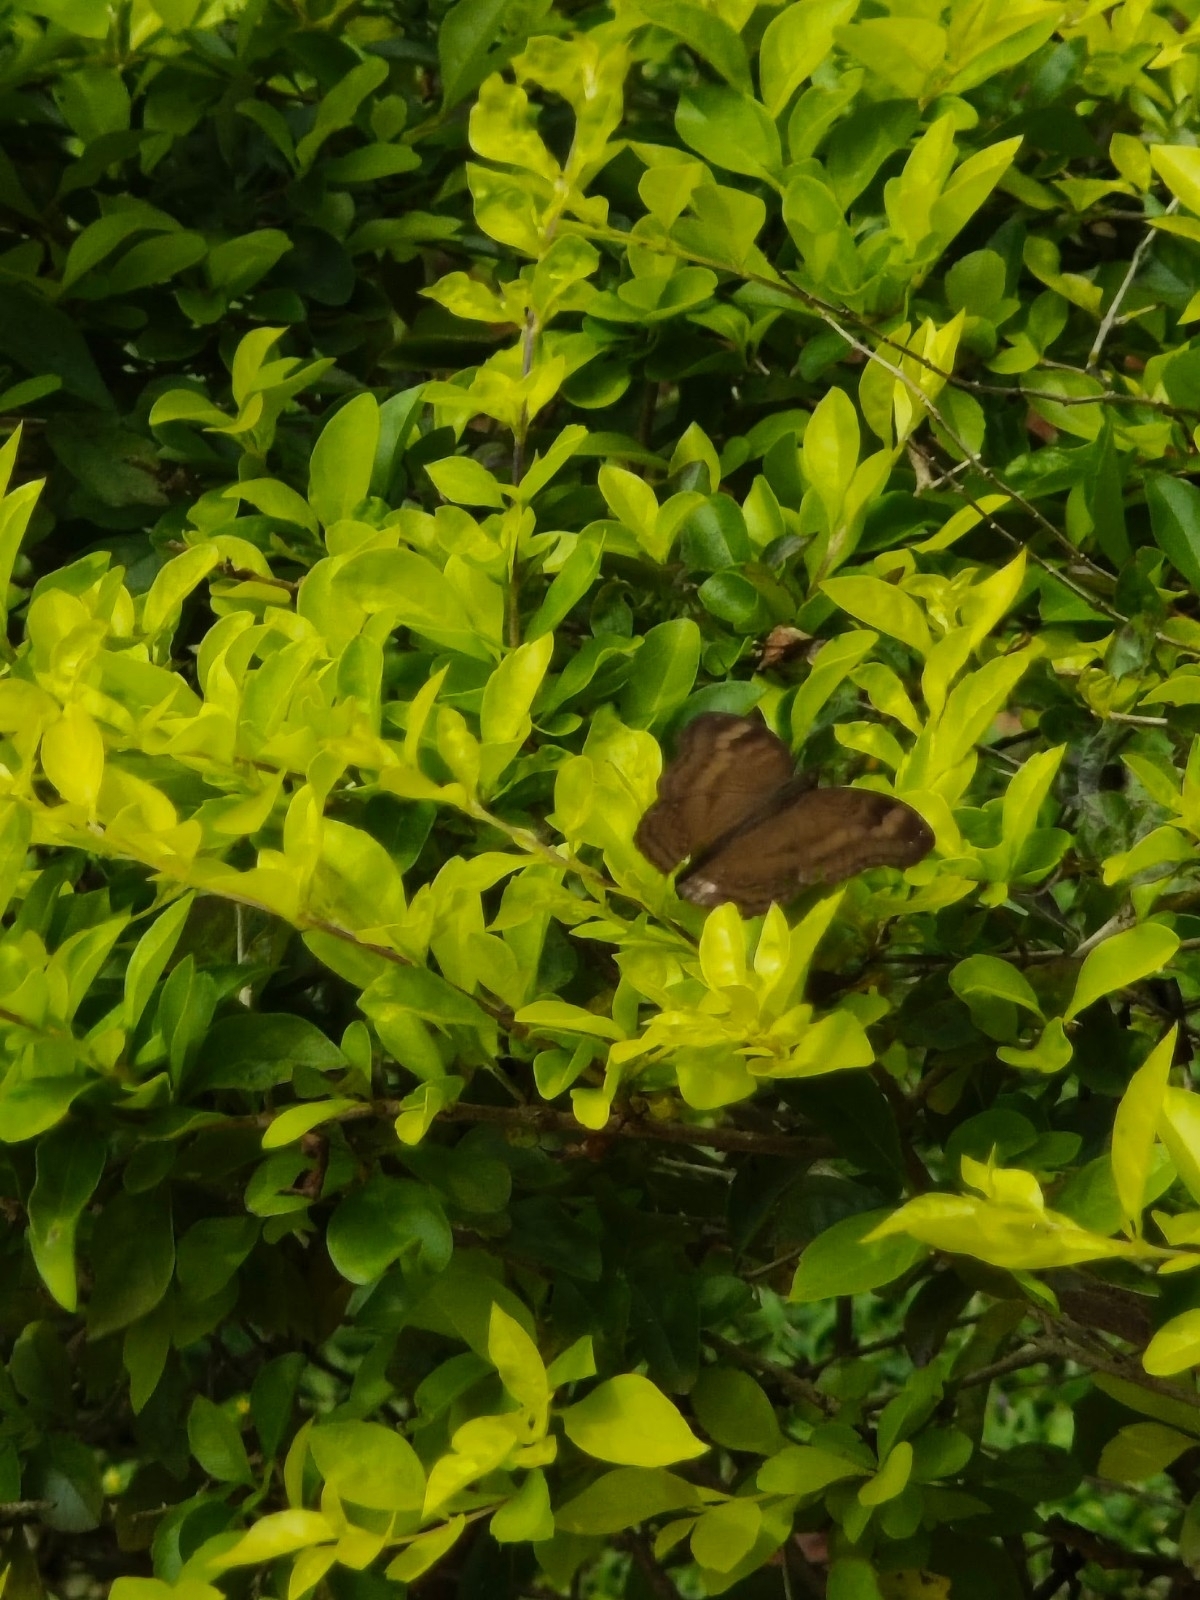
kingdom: Animalia
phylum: Arthropoda
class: Insecta
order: Lepidoptera
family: Nymphalidae
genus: Junonia
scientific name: Junonia iphita
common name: Chocolate pansy
